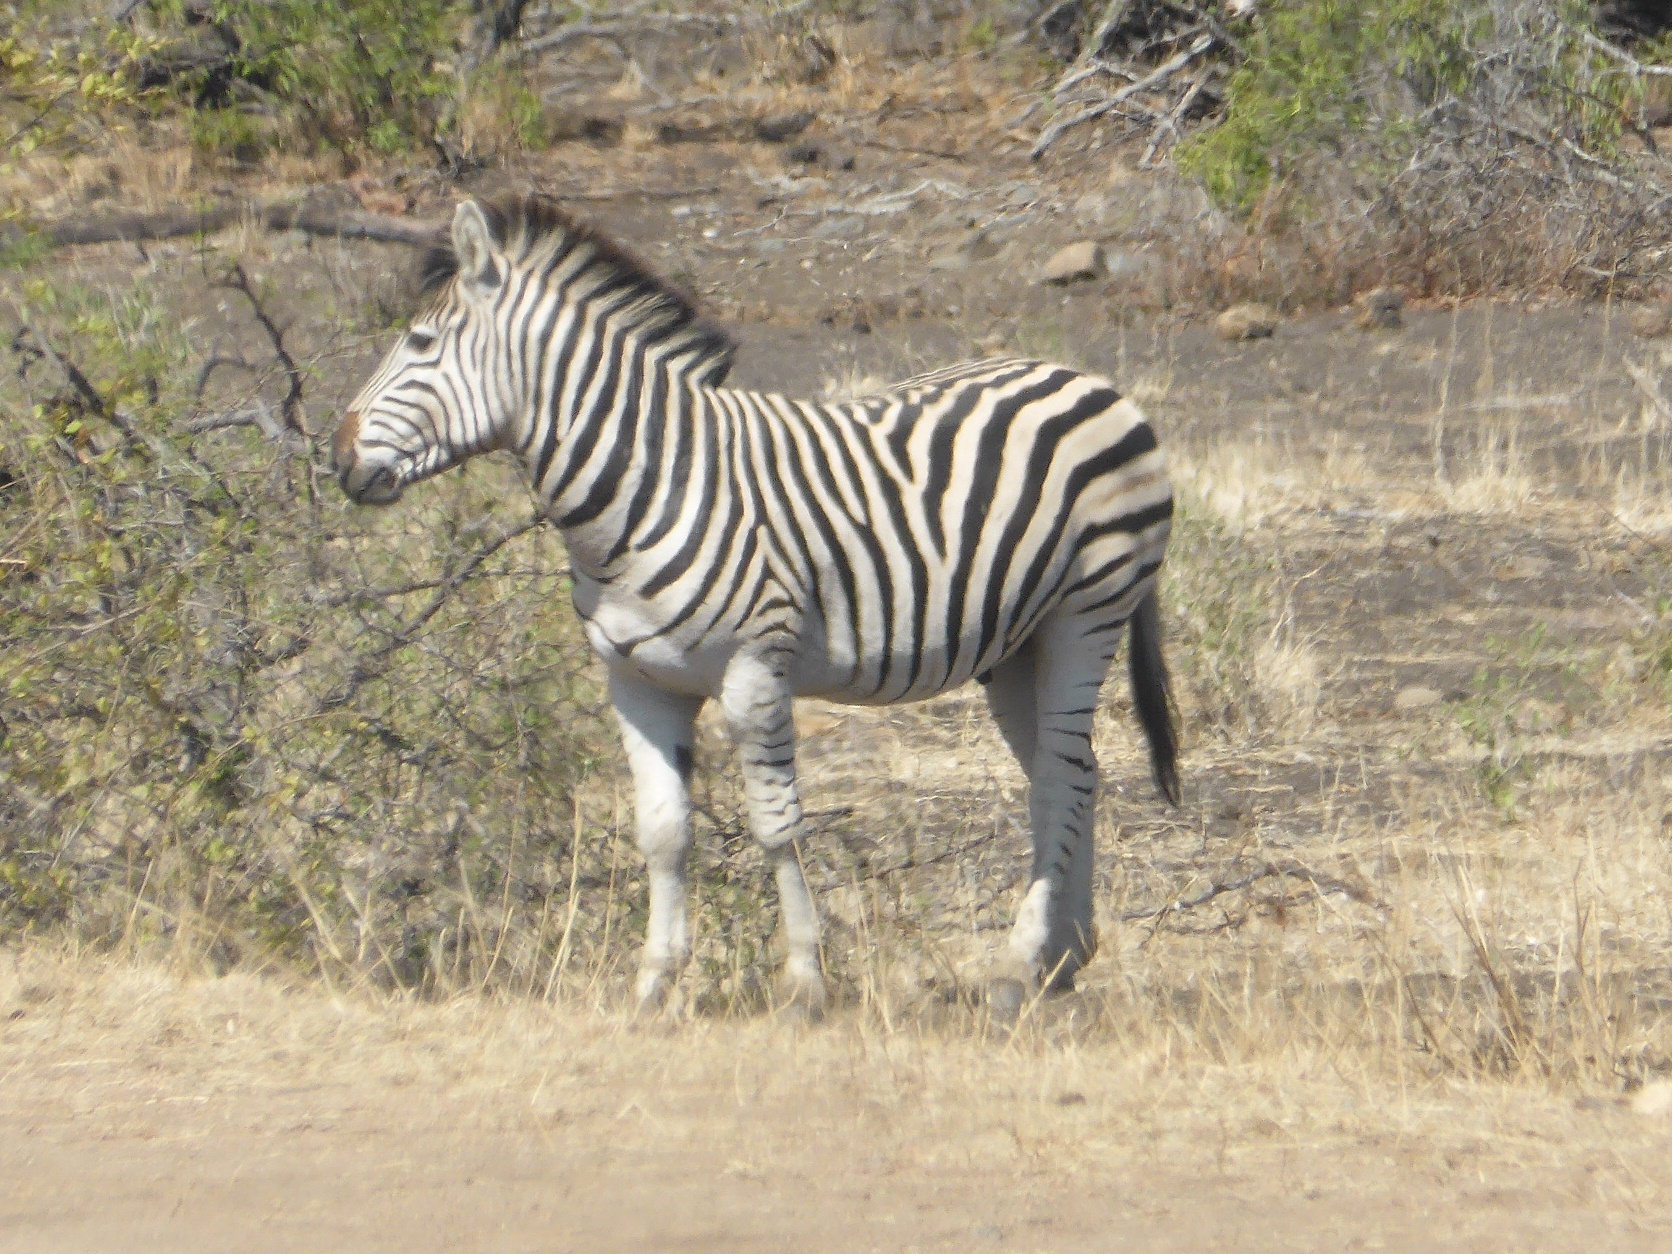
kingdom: Animalia
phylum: Chordata
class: Mammalia
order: Perissodactyla
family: Equidae
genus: Equus
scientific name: Equus quagga
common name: Plains zebra
